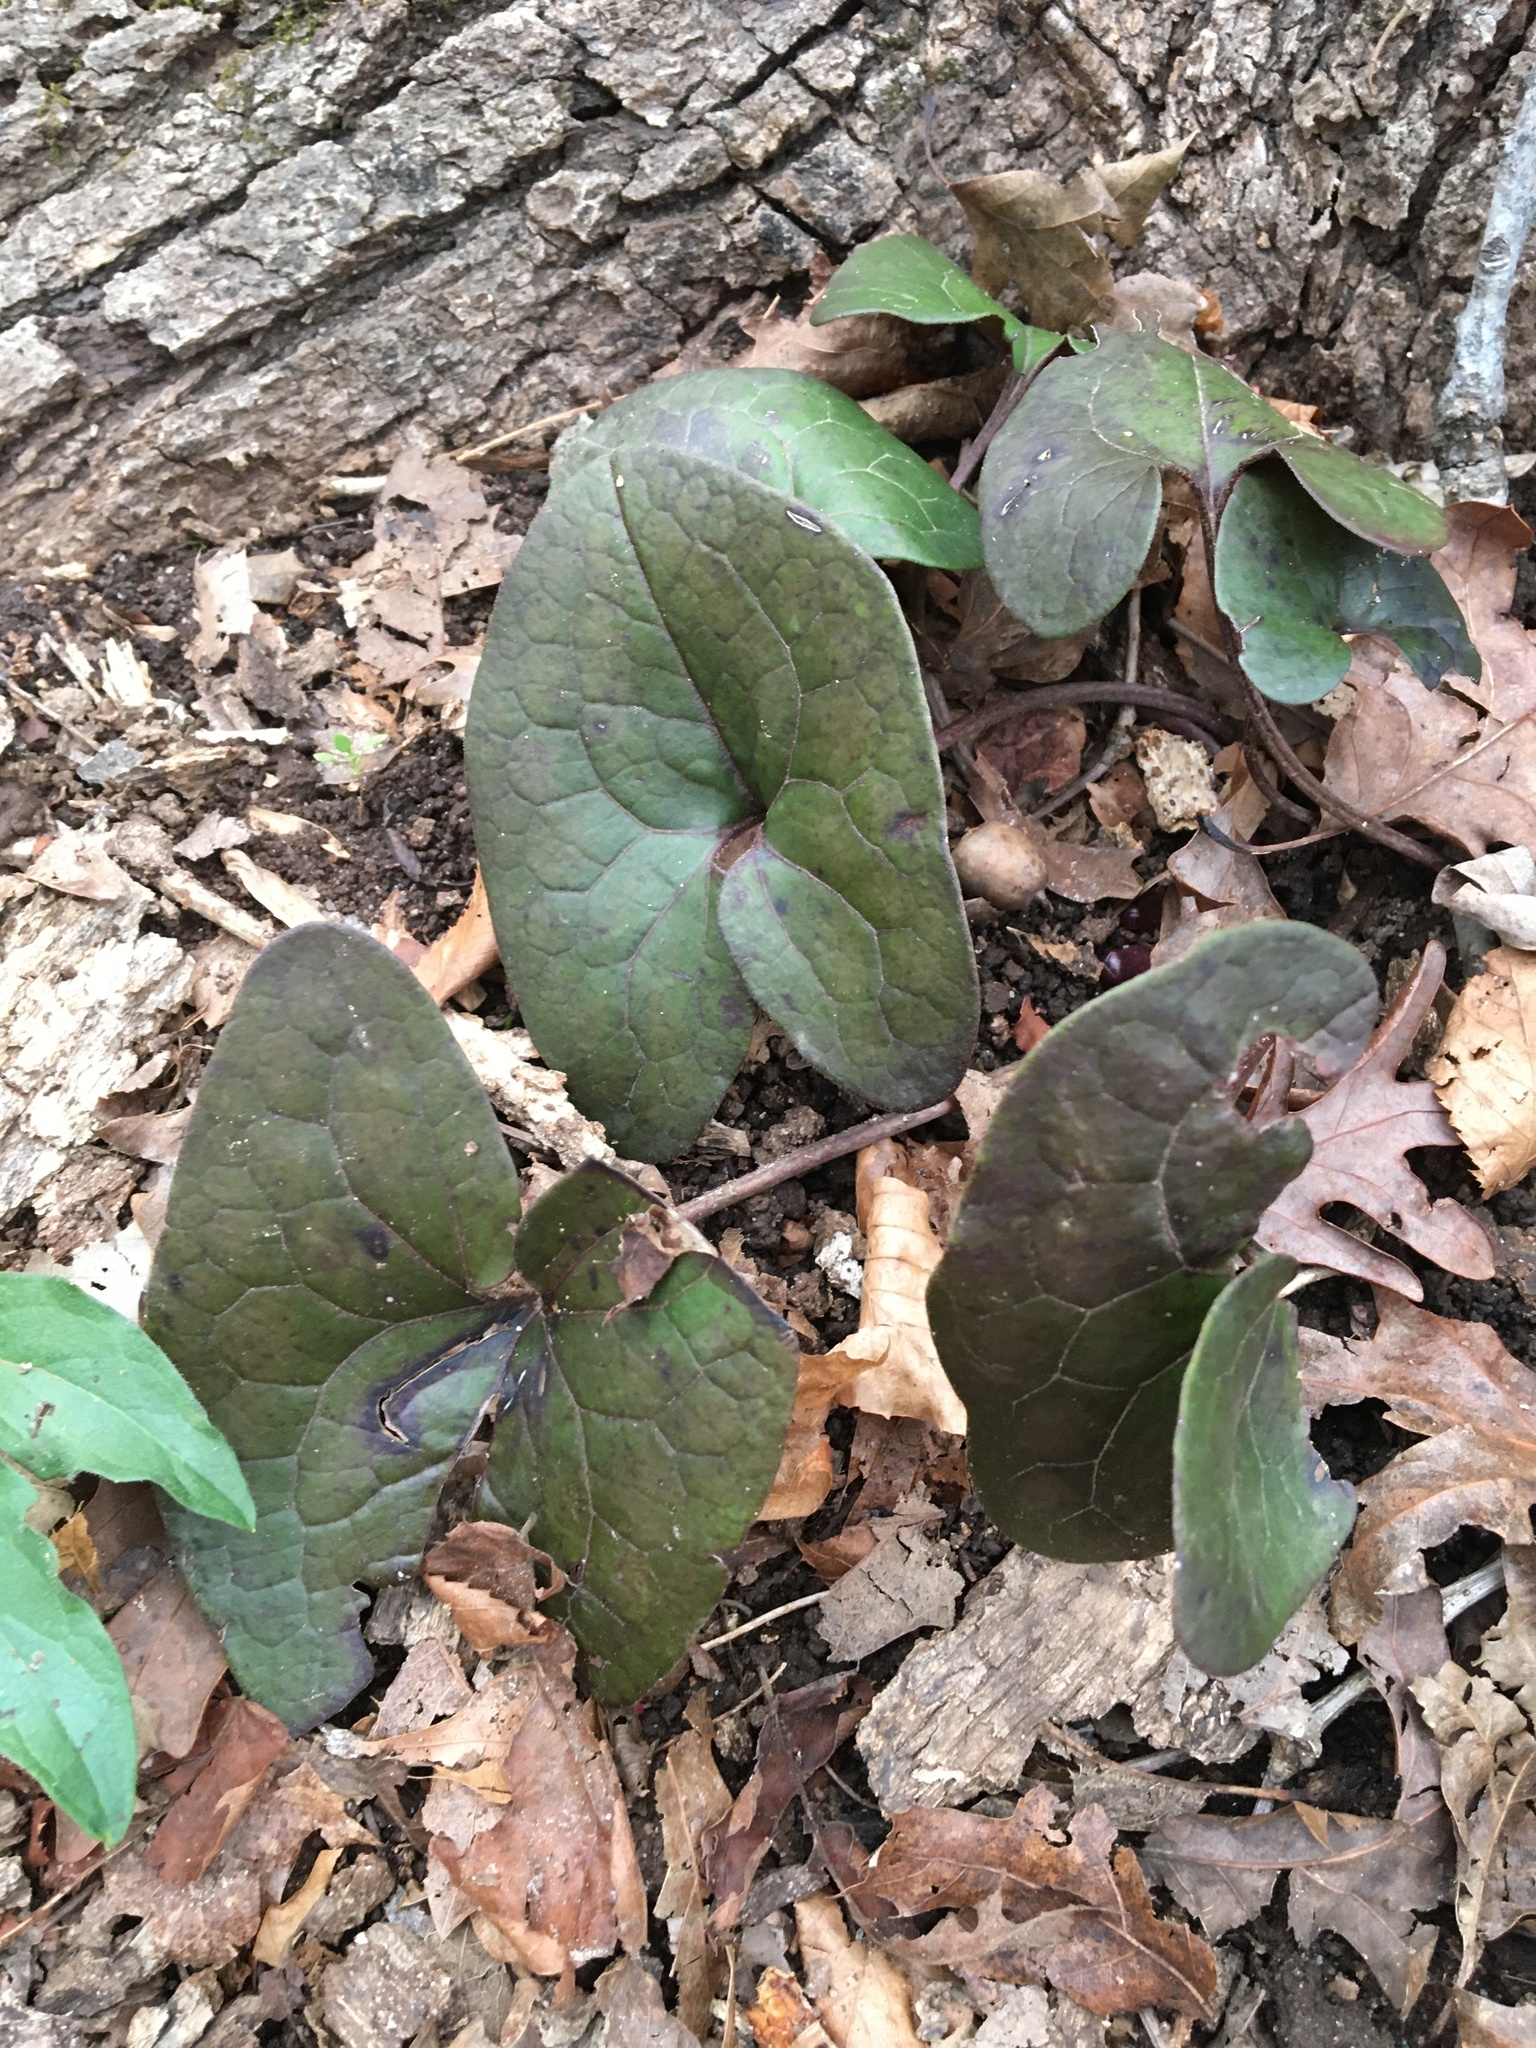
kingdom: Plantae
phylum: Tracheophyta
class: Magnoliopsida
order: Piperales
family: Aristolochiaceae
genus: Hexastylis
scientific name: Hexastylis arifolia
